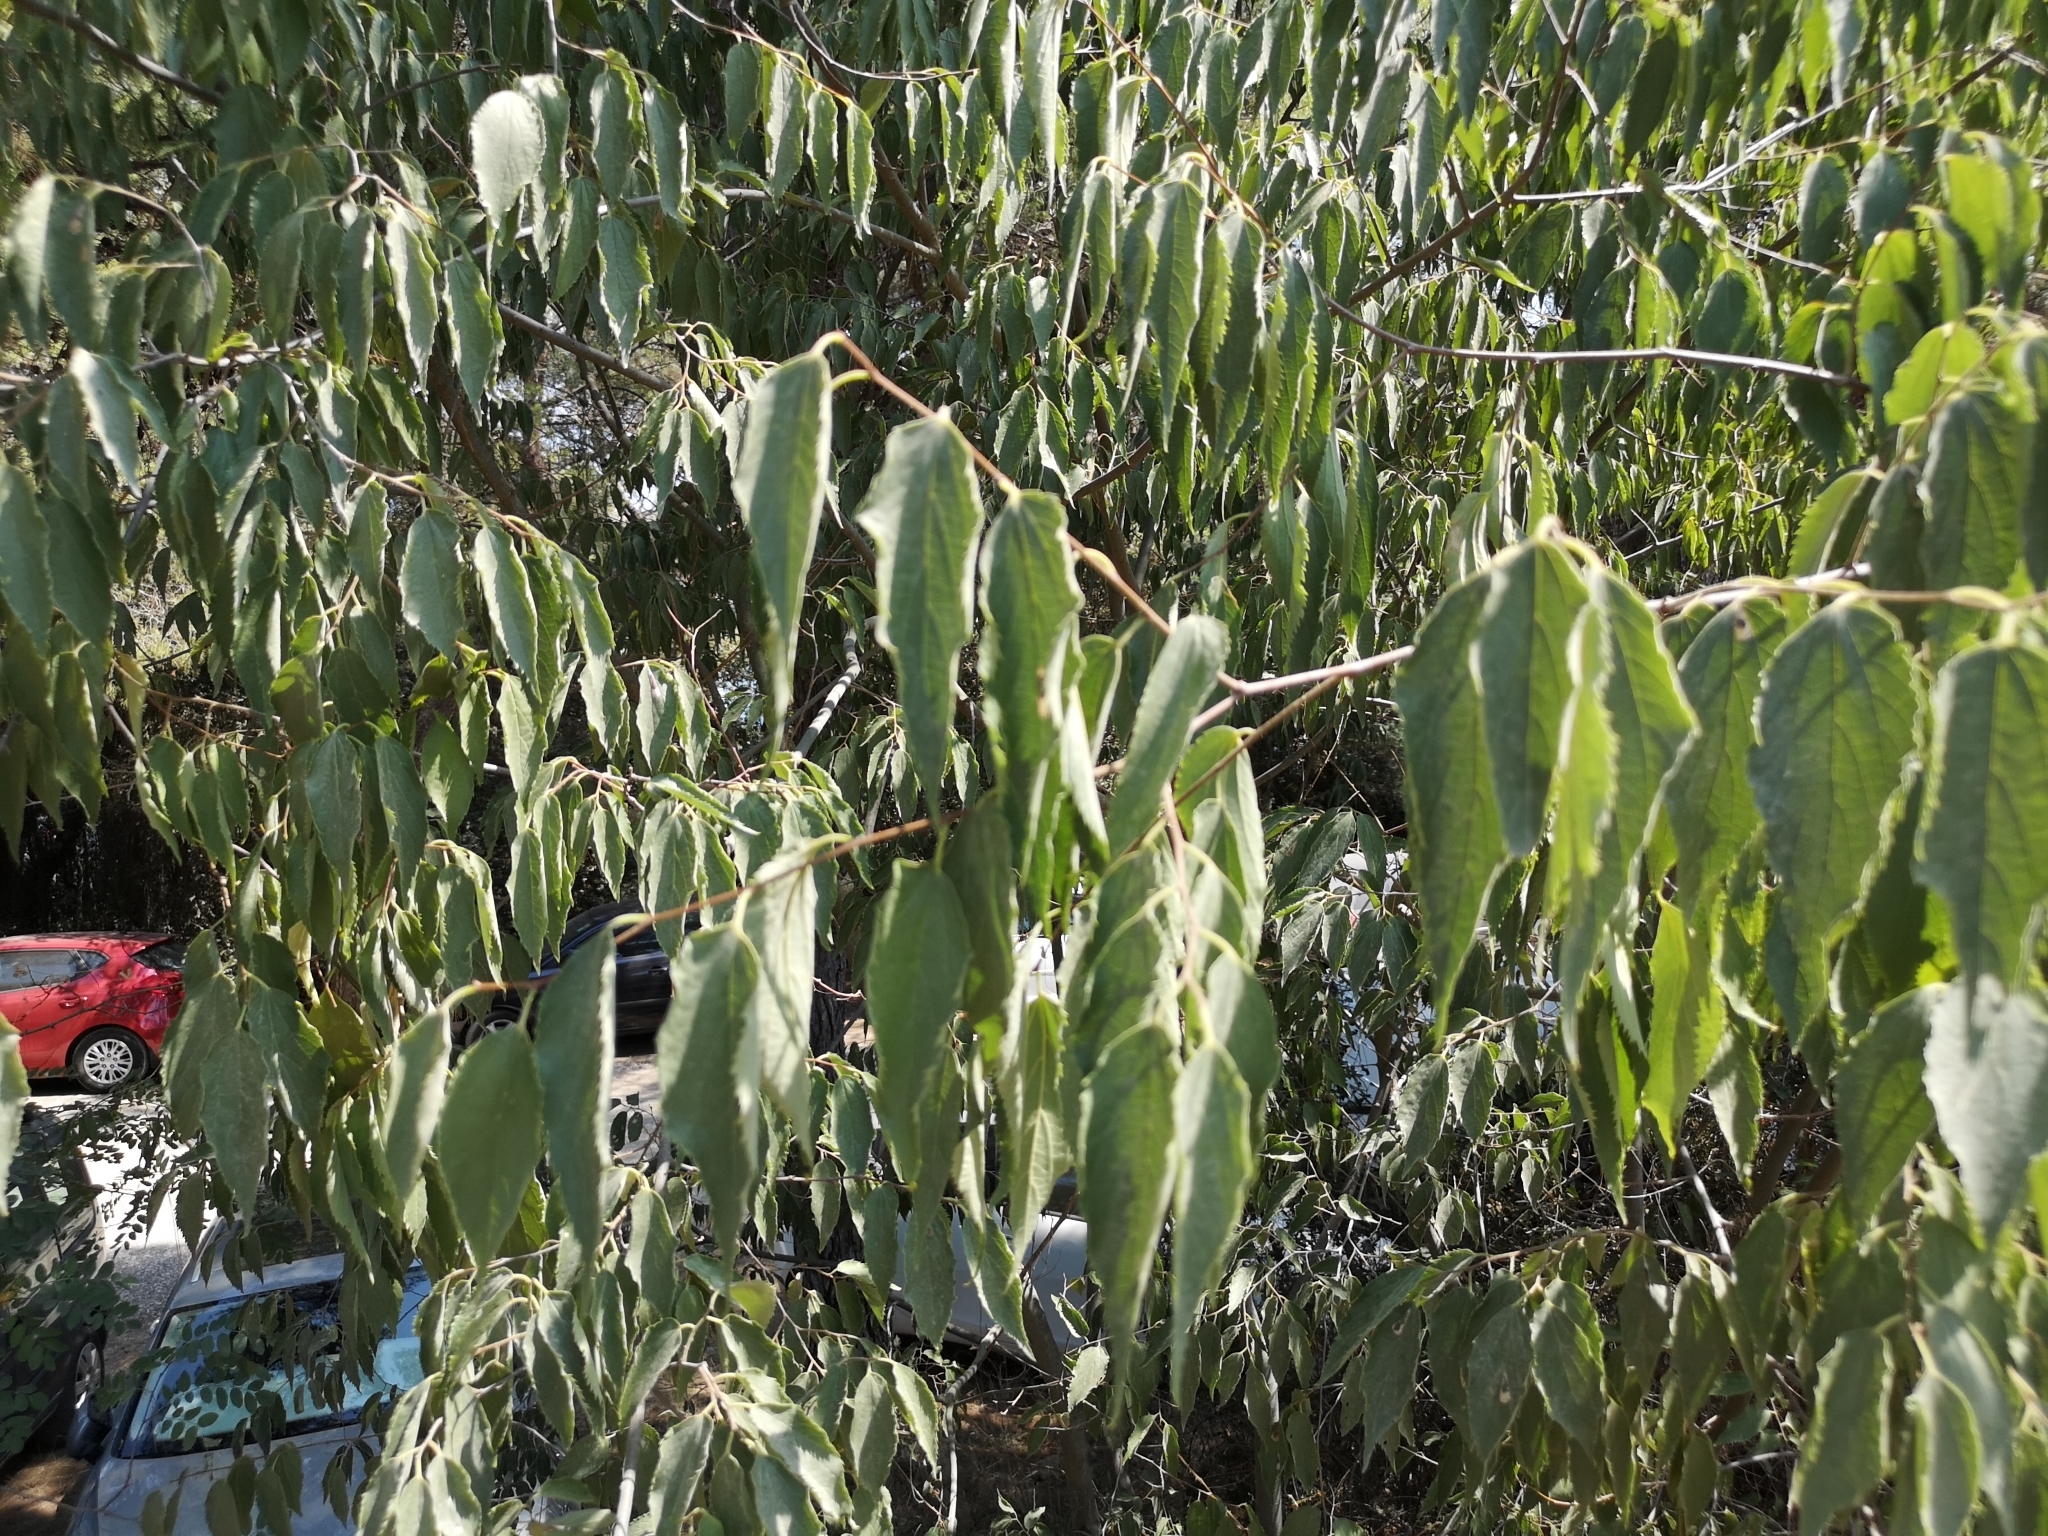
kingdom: Plantae
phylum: Tracheophyta
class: Magnoliopsida
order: Rosales
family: Cannabaceae
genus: Celtis
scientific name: Celtis australis
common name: European hackberry
